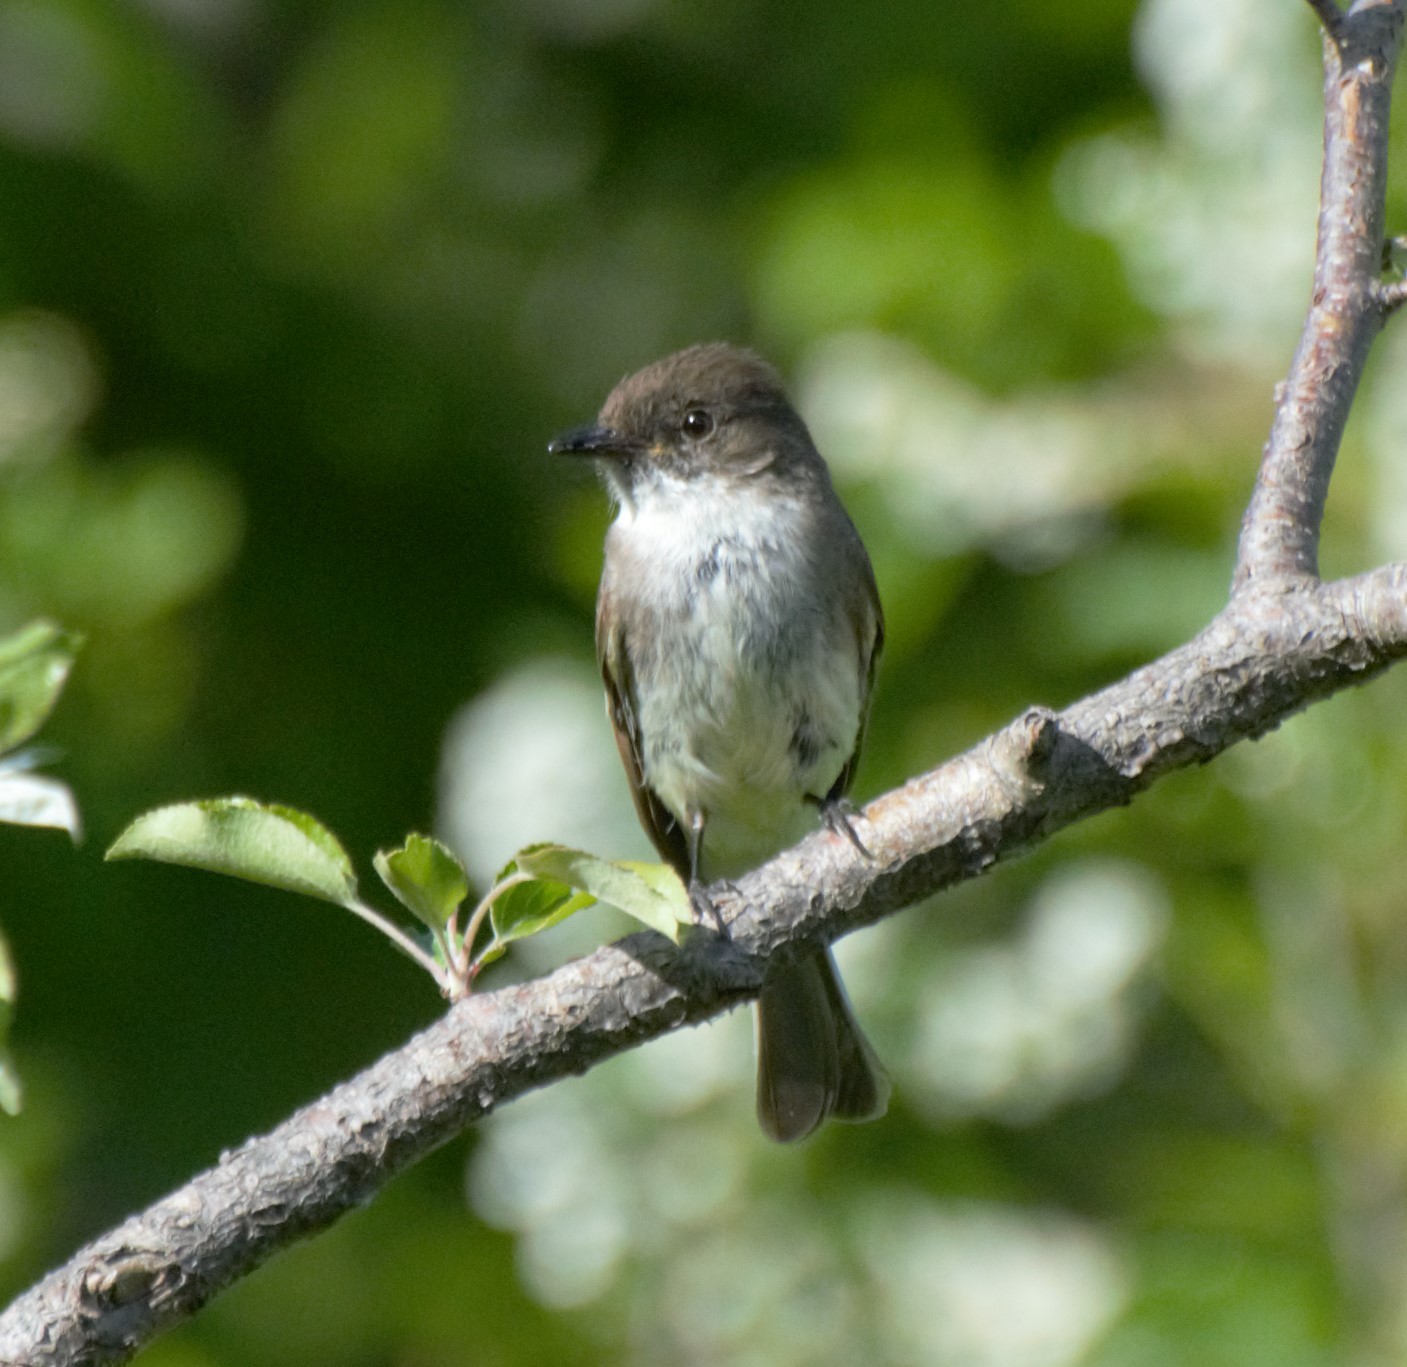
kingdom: Animalia
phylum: Chordata
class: Aves
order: Passeriformes
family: Tyrannidae
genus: Sayornis
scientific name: Sayornis phoebe
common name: Eastern phoebe
